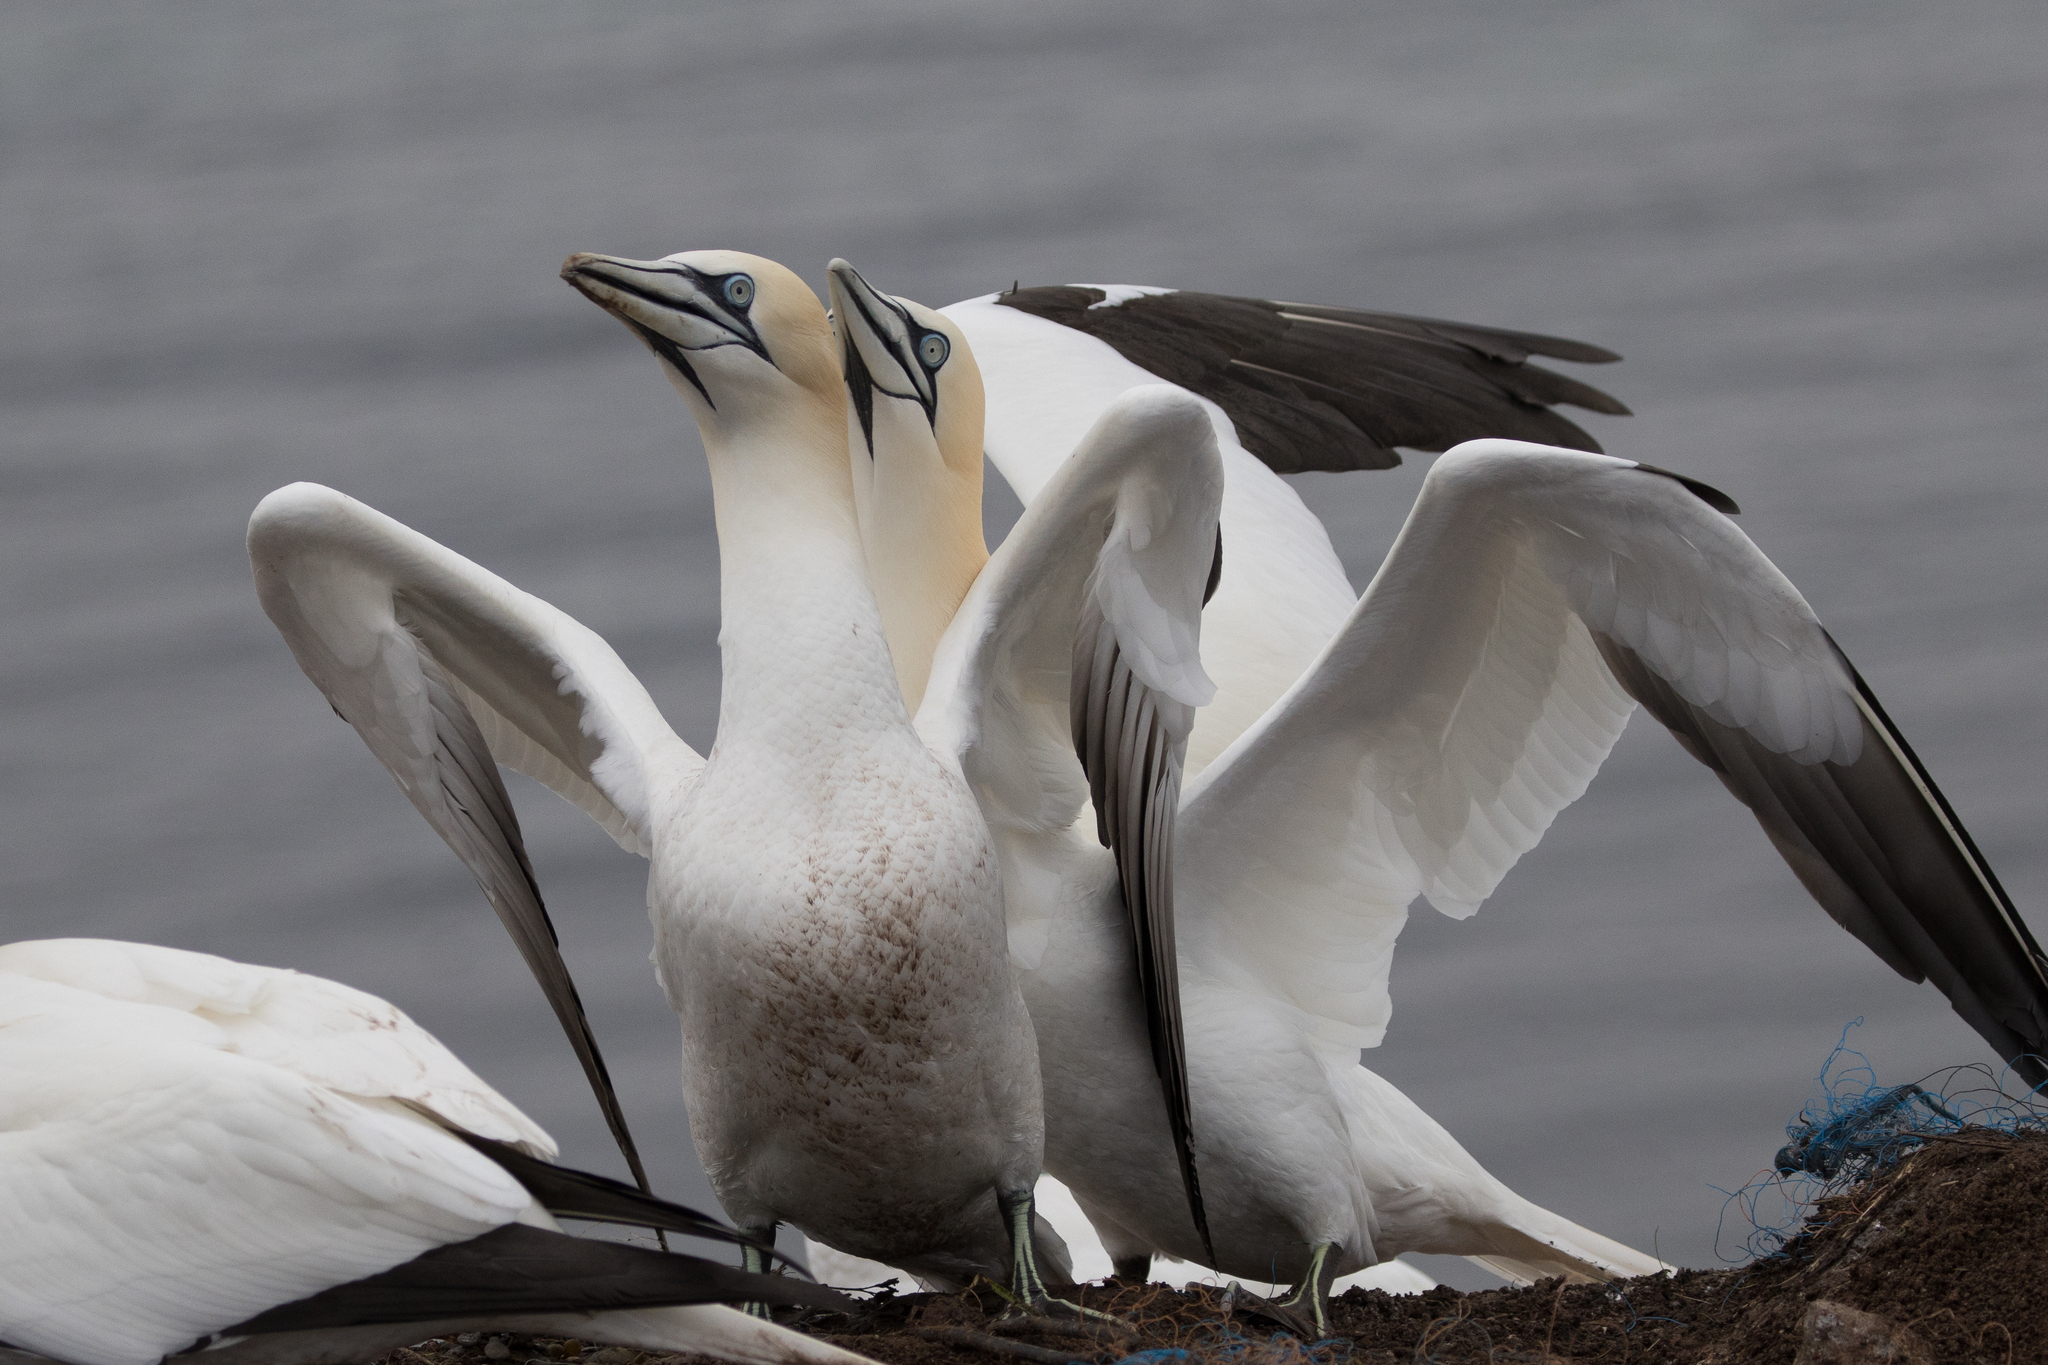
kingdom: Animalia
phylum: Chordata
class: Aves
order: Suliformes
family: Sulidae
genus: Morus
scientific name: Morus bassanus
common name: Northern gannet
